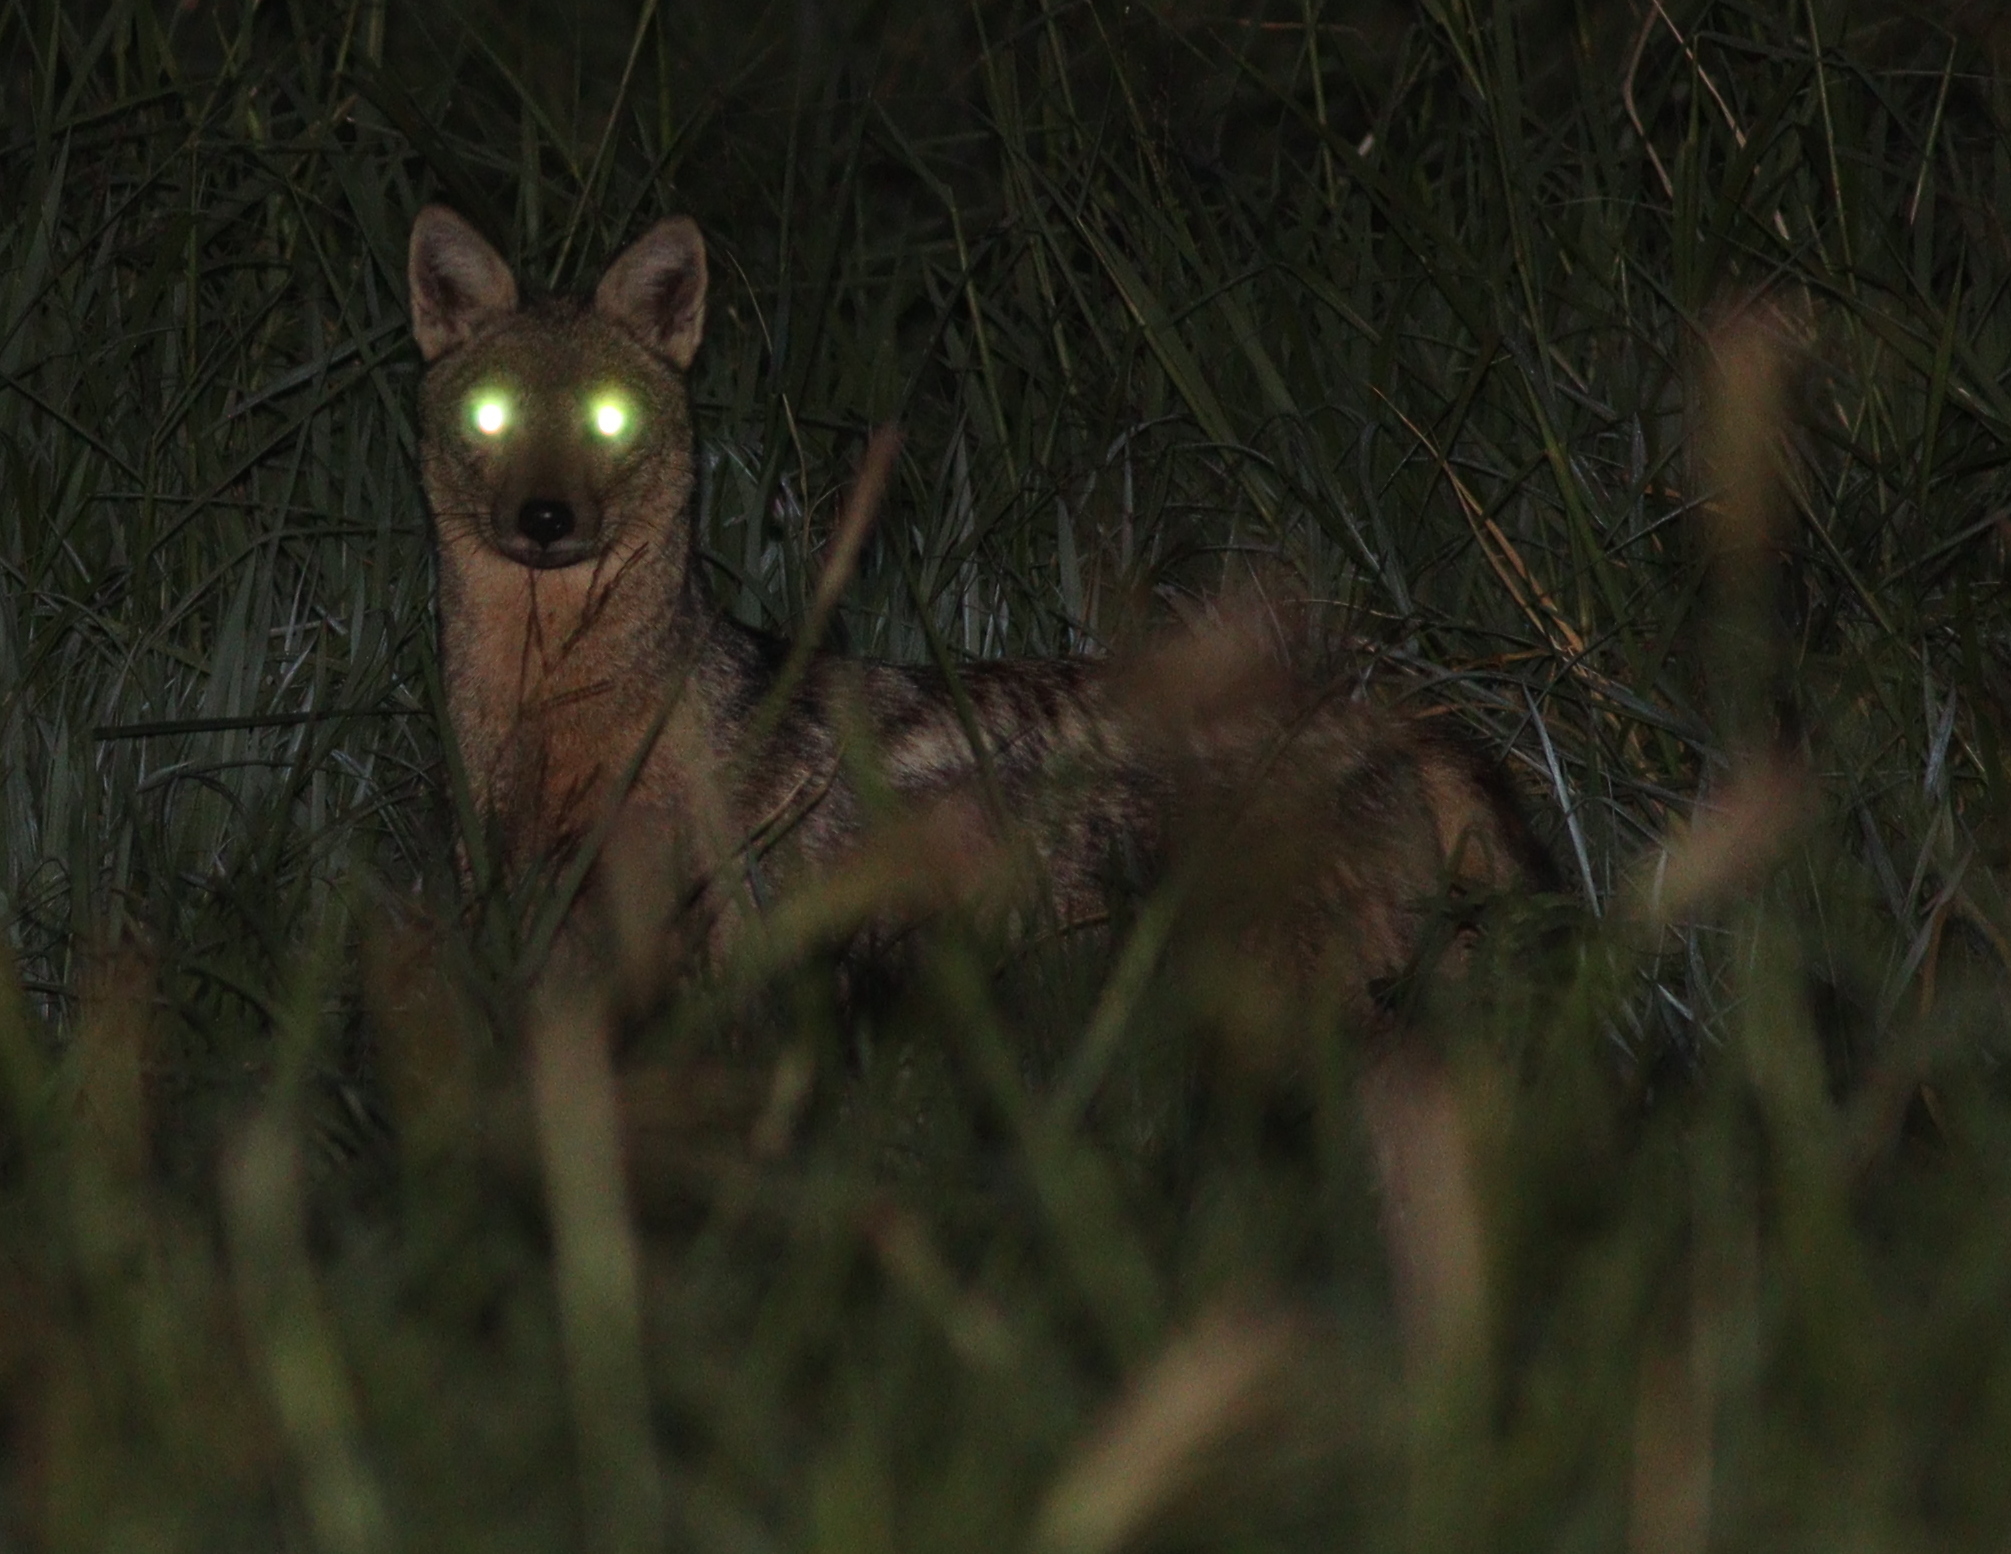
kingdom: Animalia
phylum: Chordata
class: Mammalia
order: Carnivora
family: Canidae
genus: Lupulella
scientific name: Lupulella
